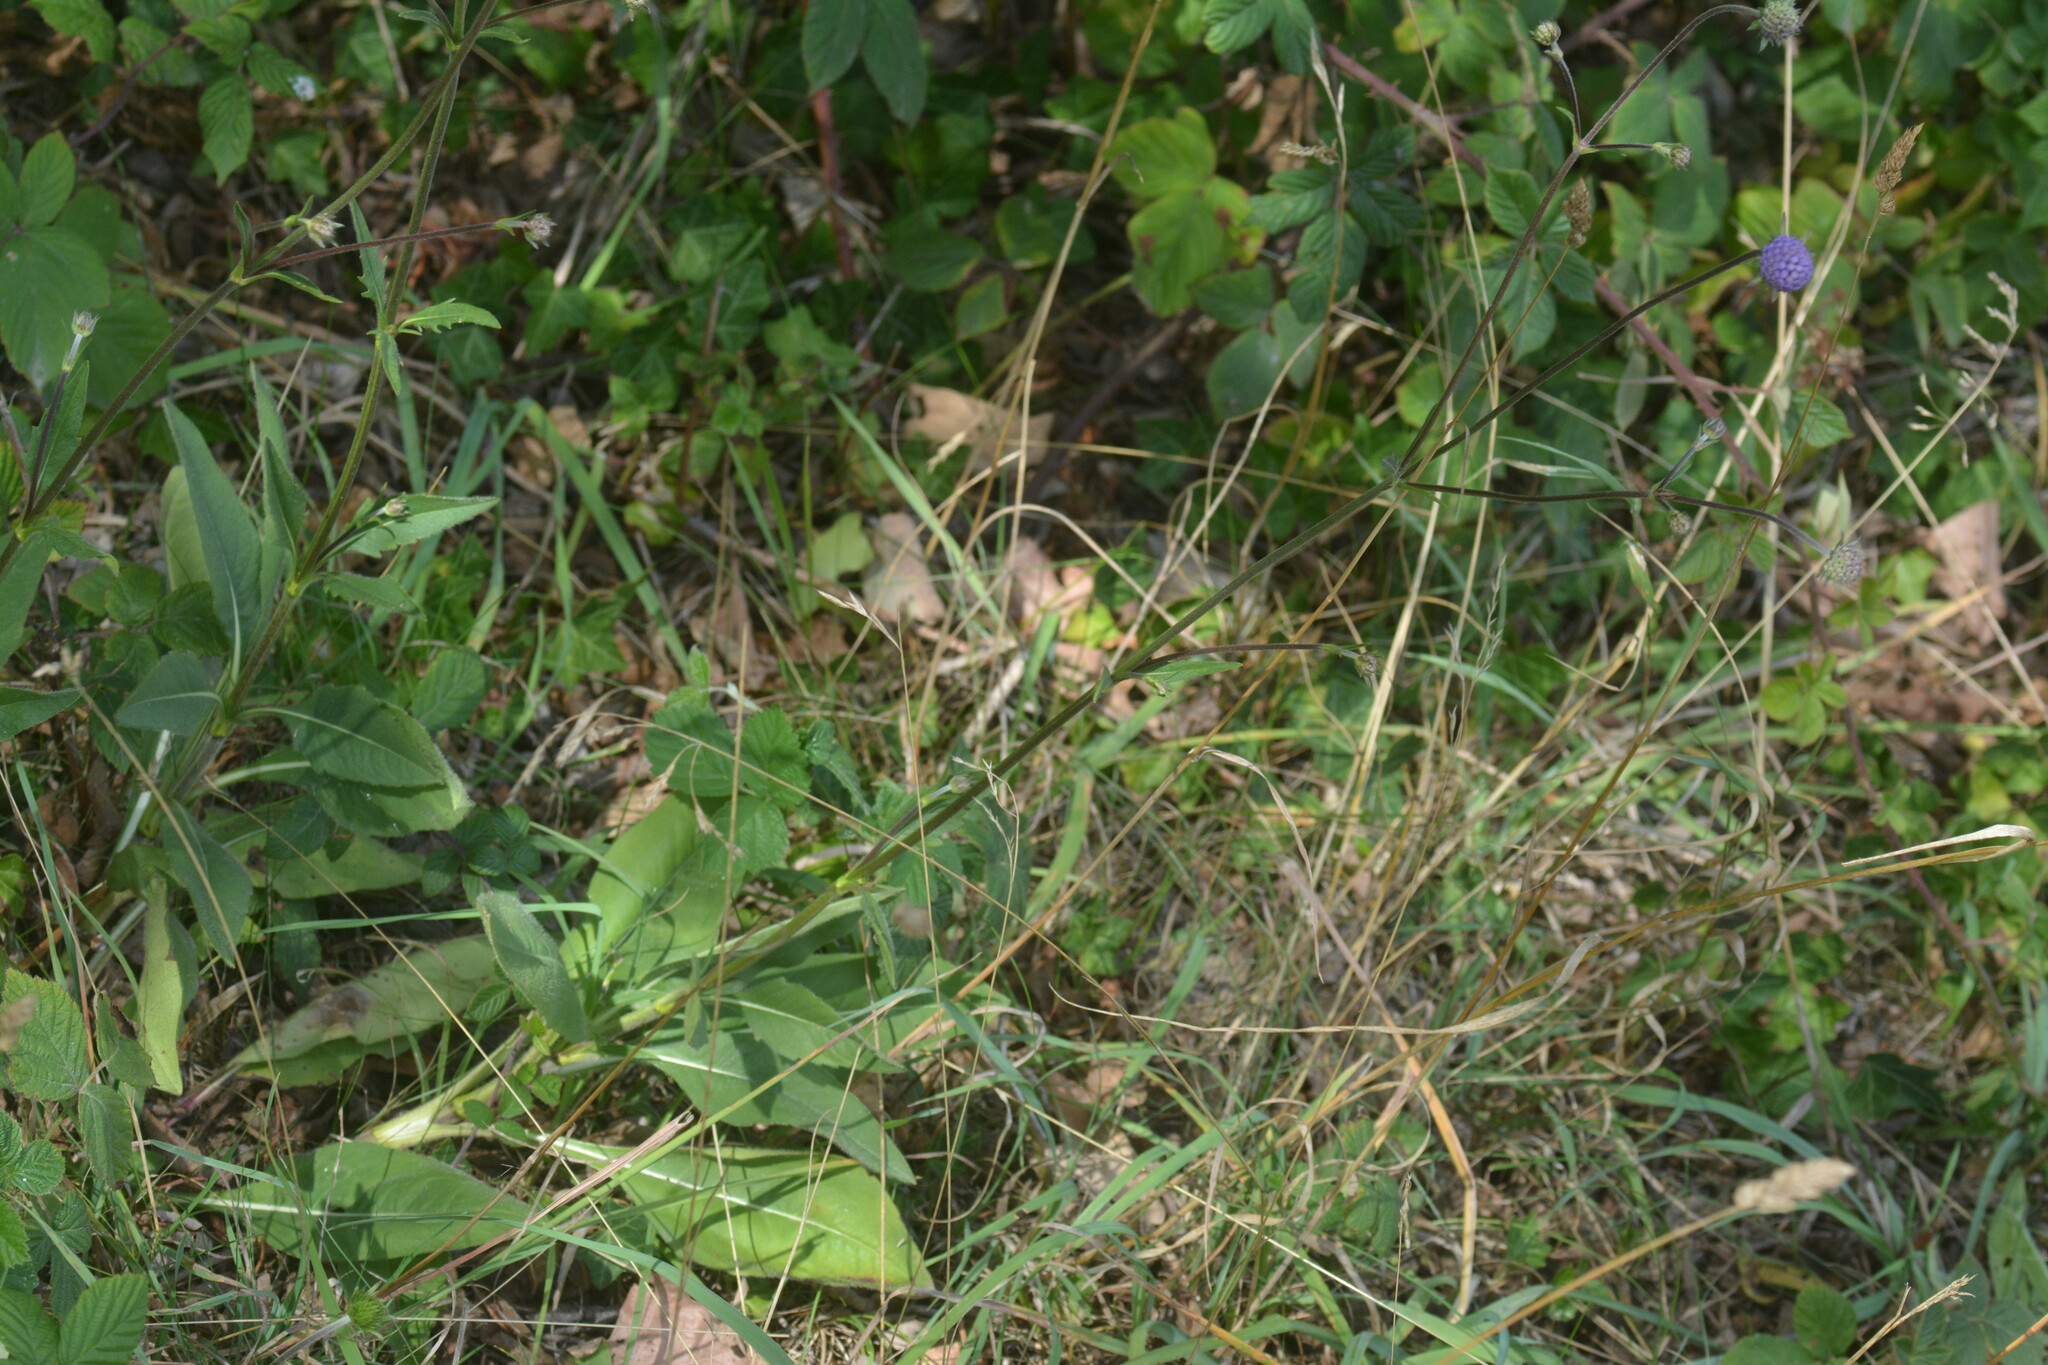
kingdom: Plantae
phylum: Tracheophyta
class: Magnoliopsida
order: Dipsacales
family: Caprifoliaceae
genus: Succisa
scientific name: Succisa pratensis
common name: Devil's-bit
